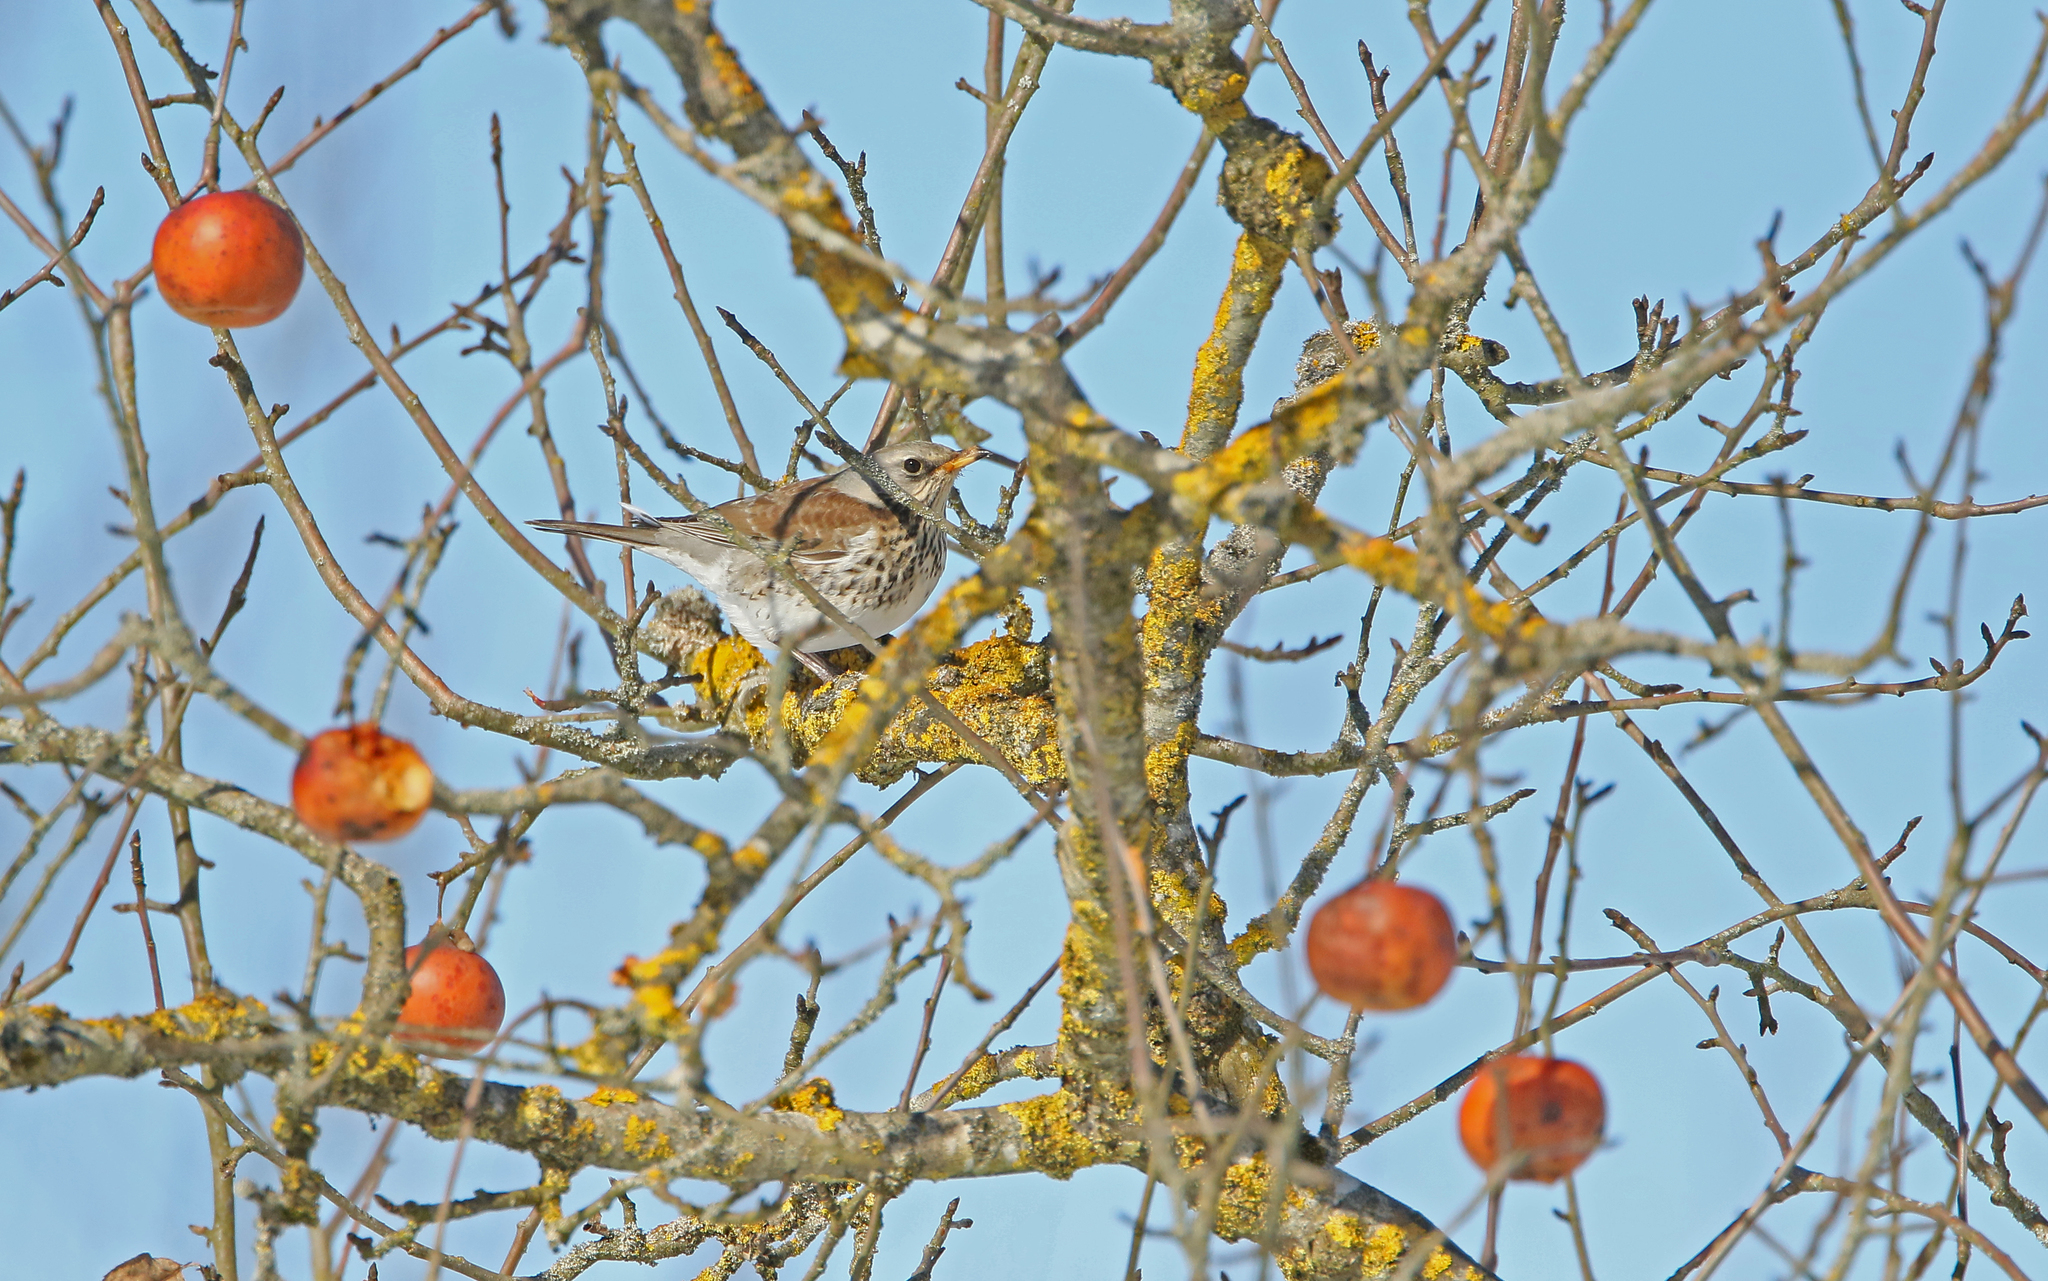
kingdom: Animalia
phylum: Chordata
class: Aves
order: Passeriformes
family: Turdidae
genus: Turdus
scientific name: Turdus pilaris
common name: Fieldfare
